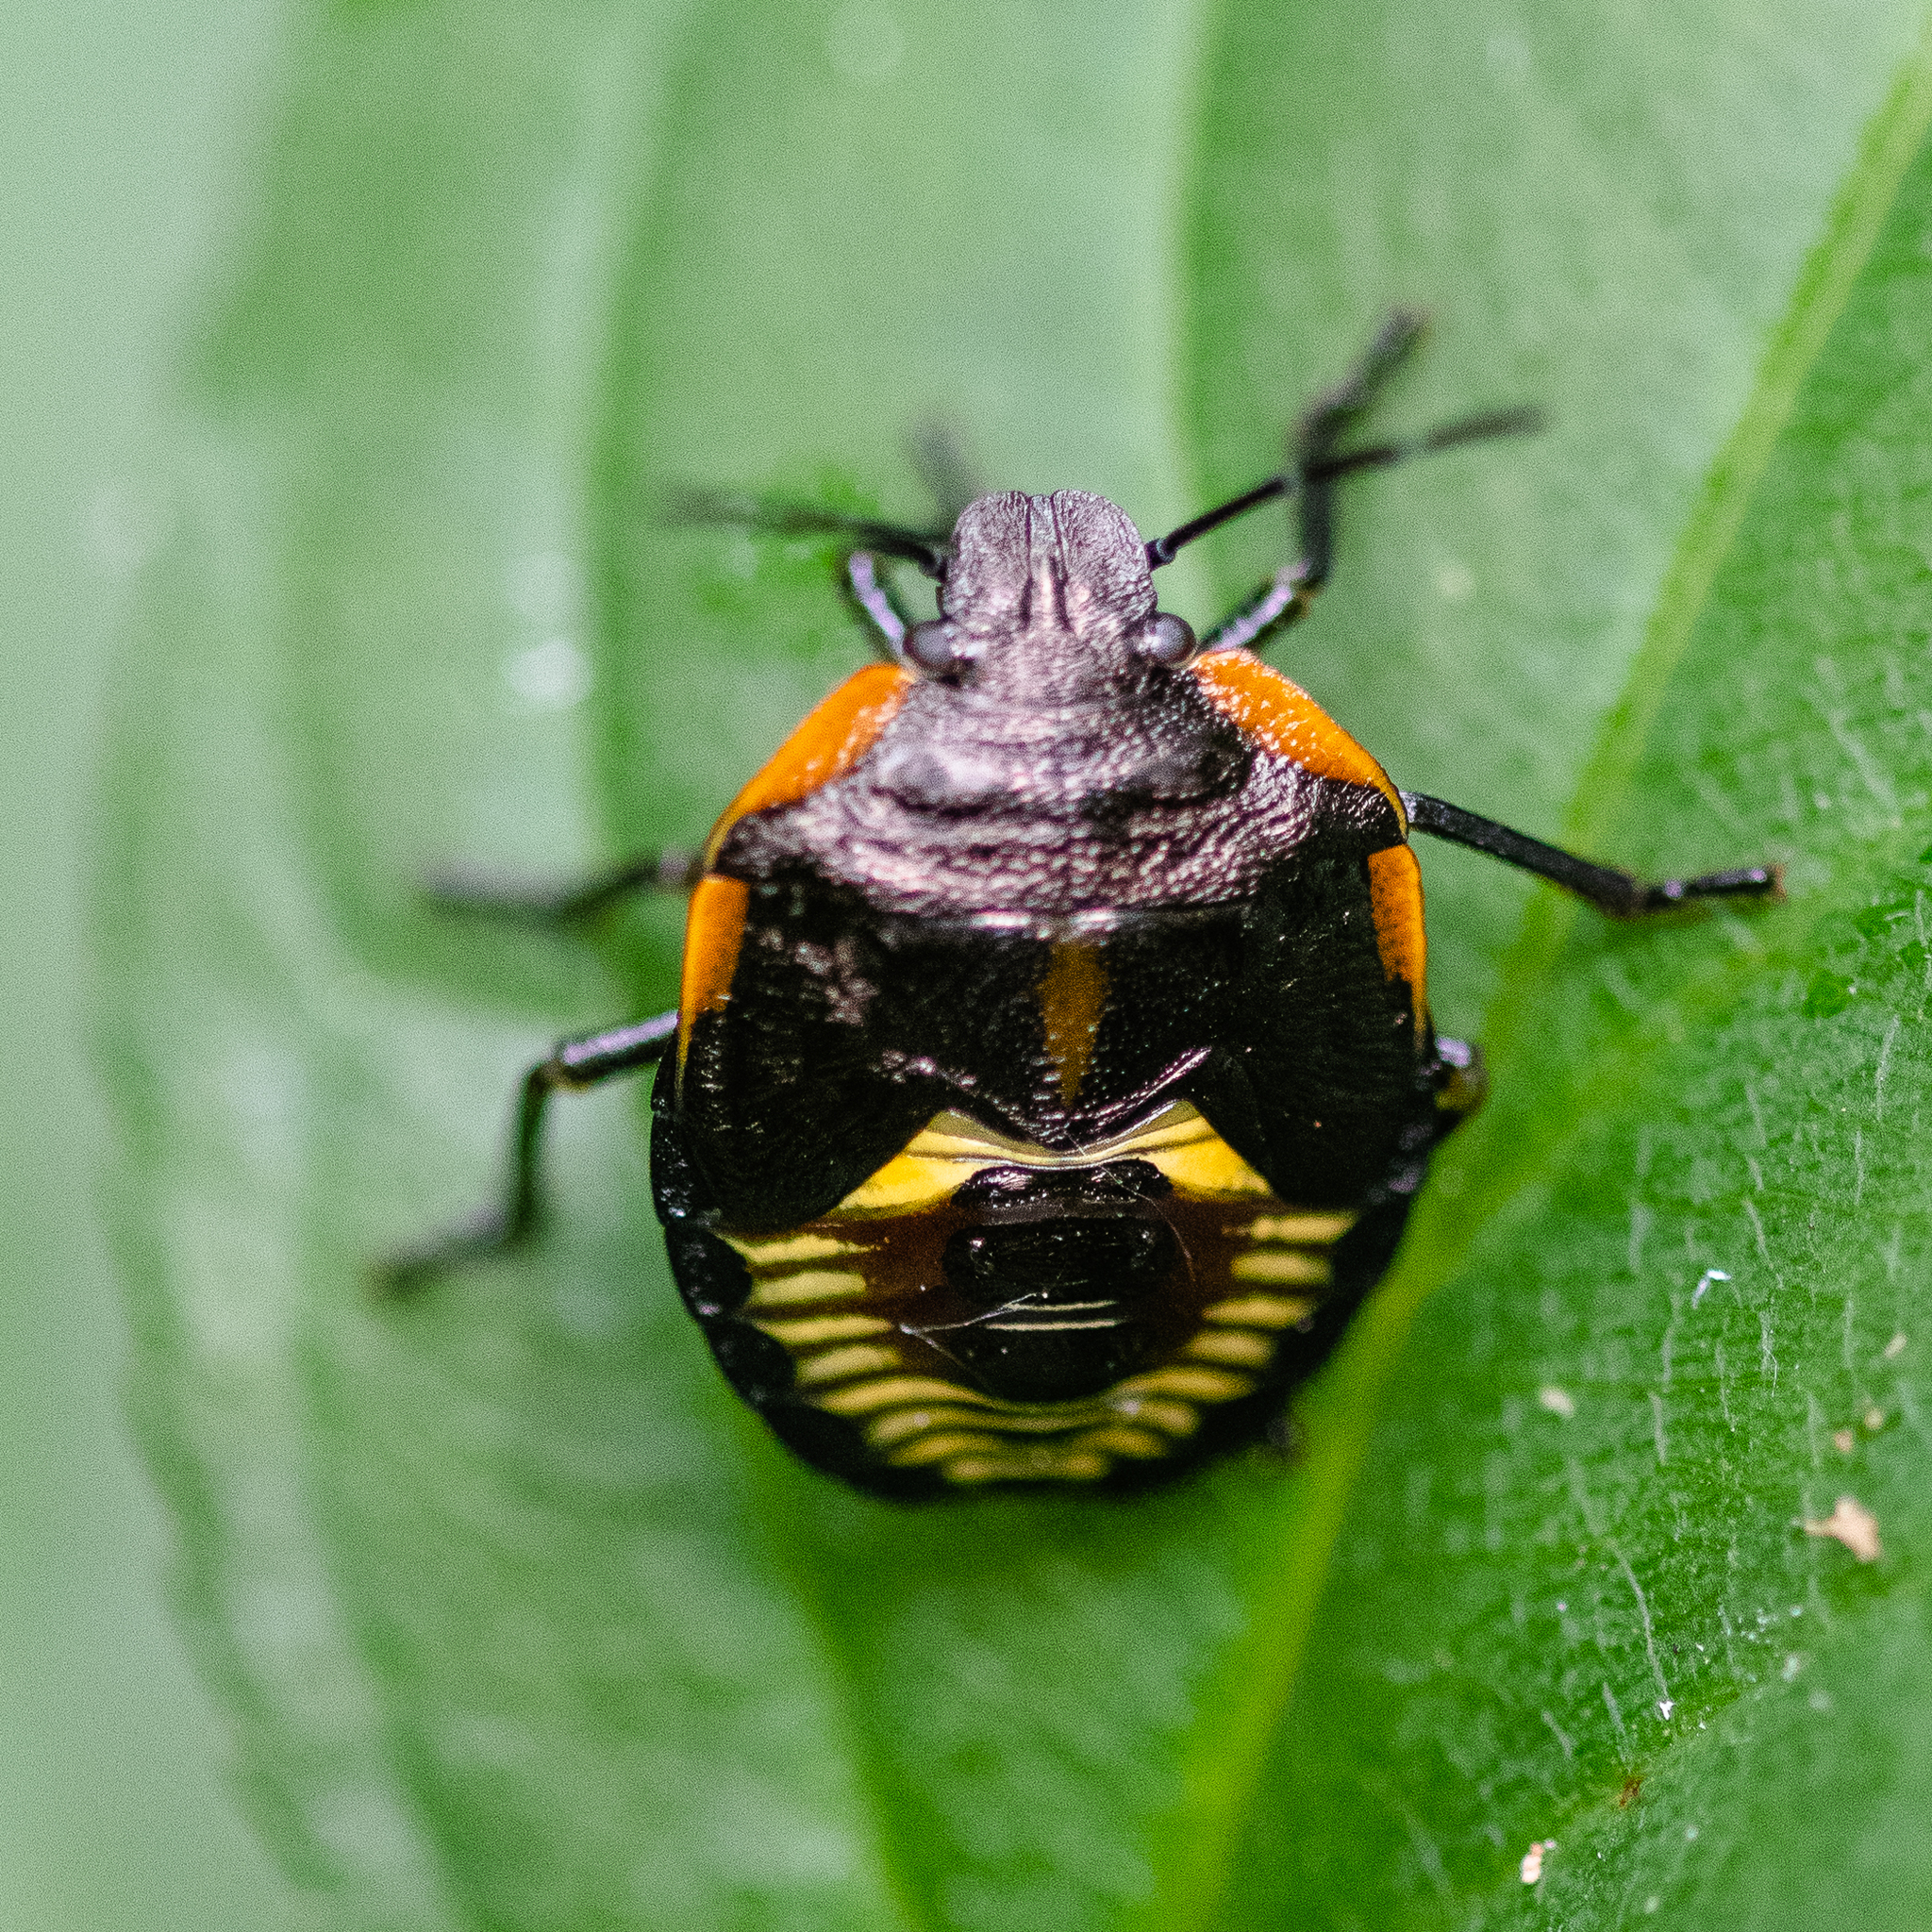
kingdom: Animalia
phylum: Arthropoda
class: Insecta
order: Hemiptera
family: Pentatomidae
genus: Chinavia
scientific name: Chinavia hilaris
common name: Green stink bug
